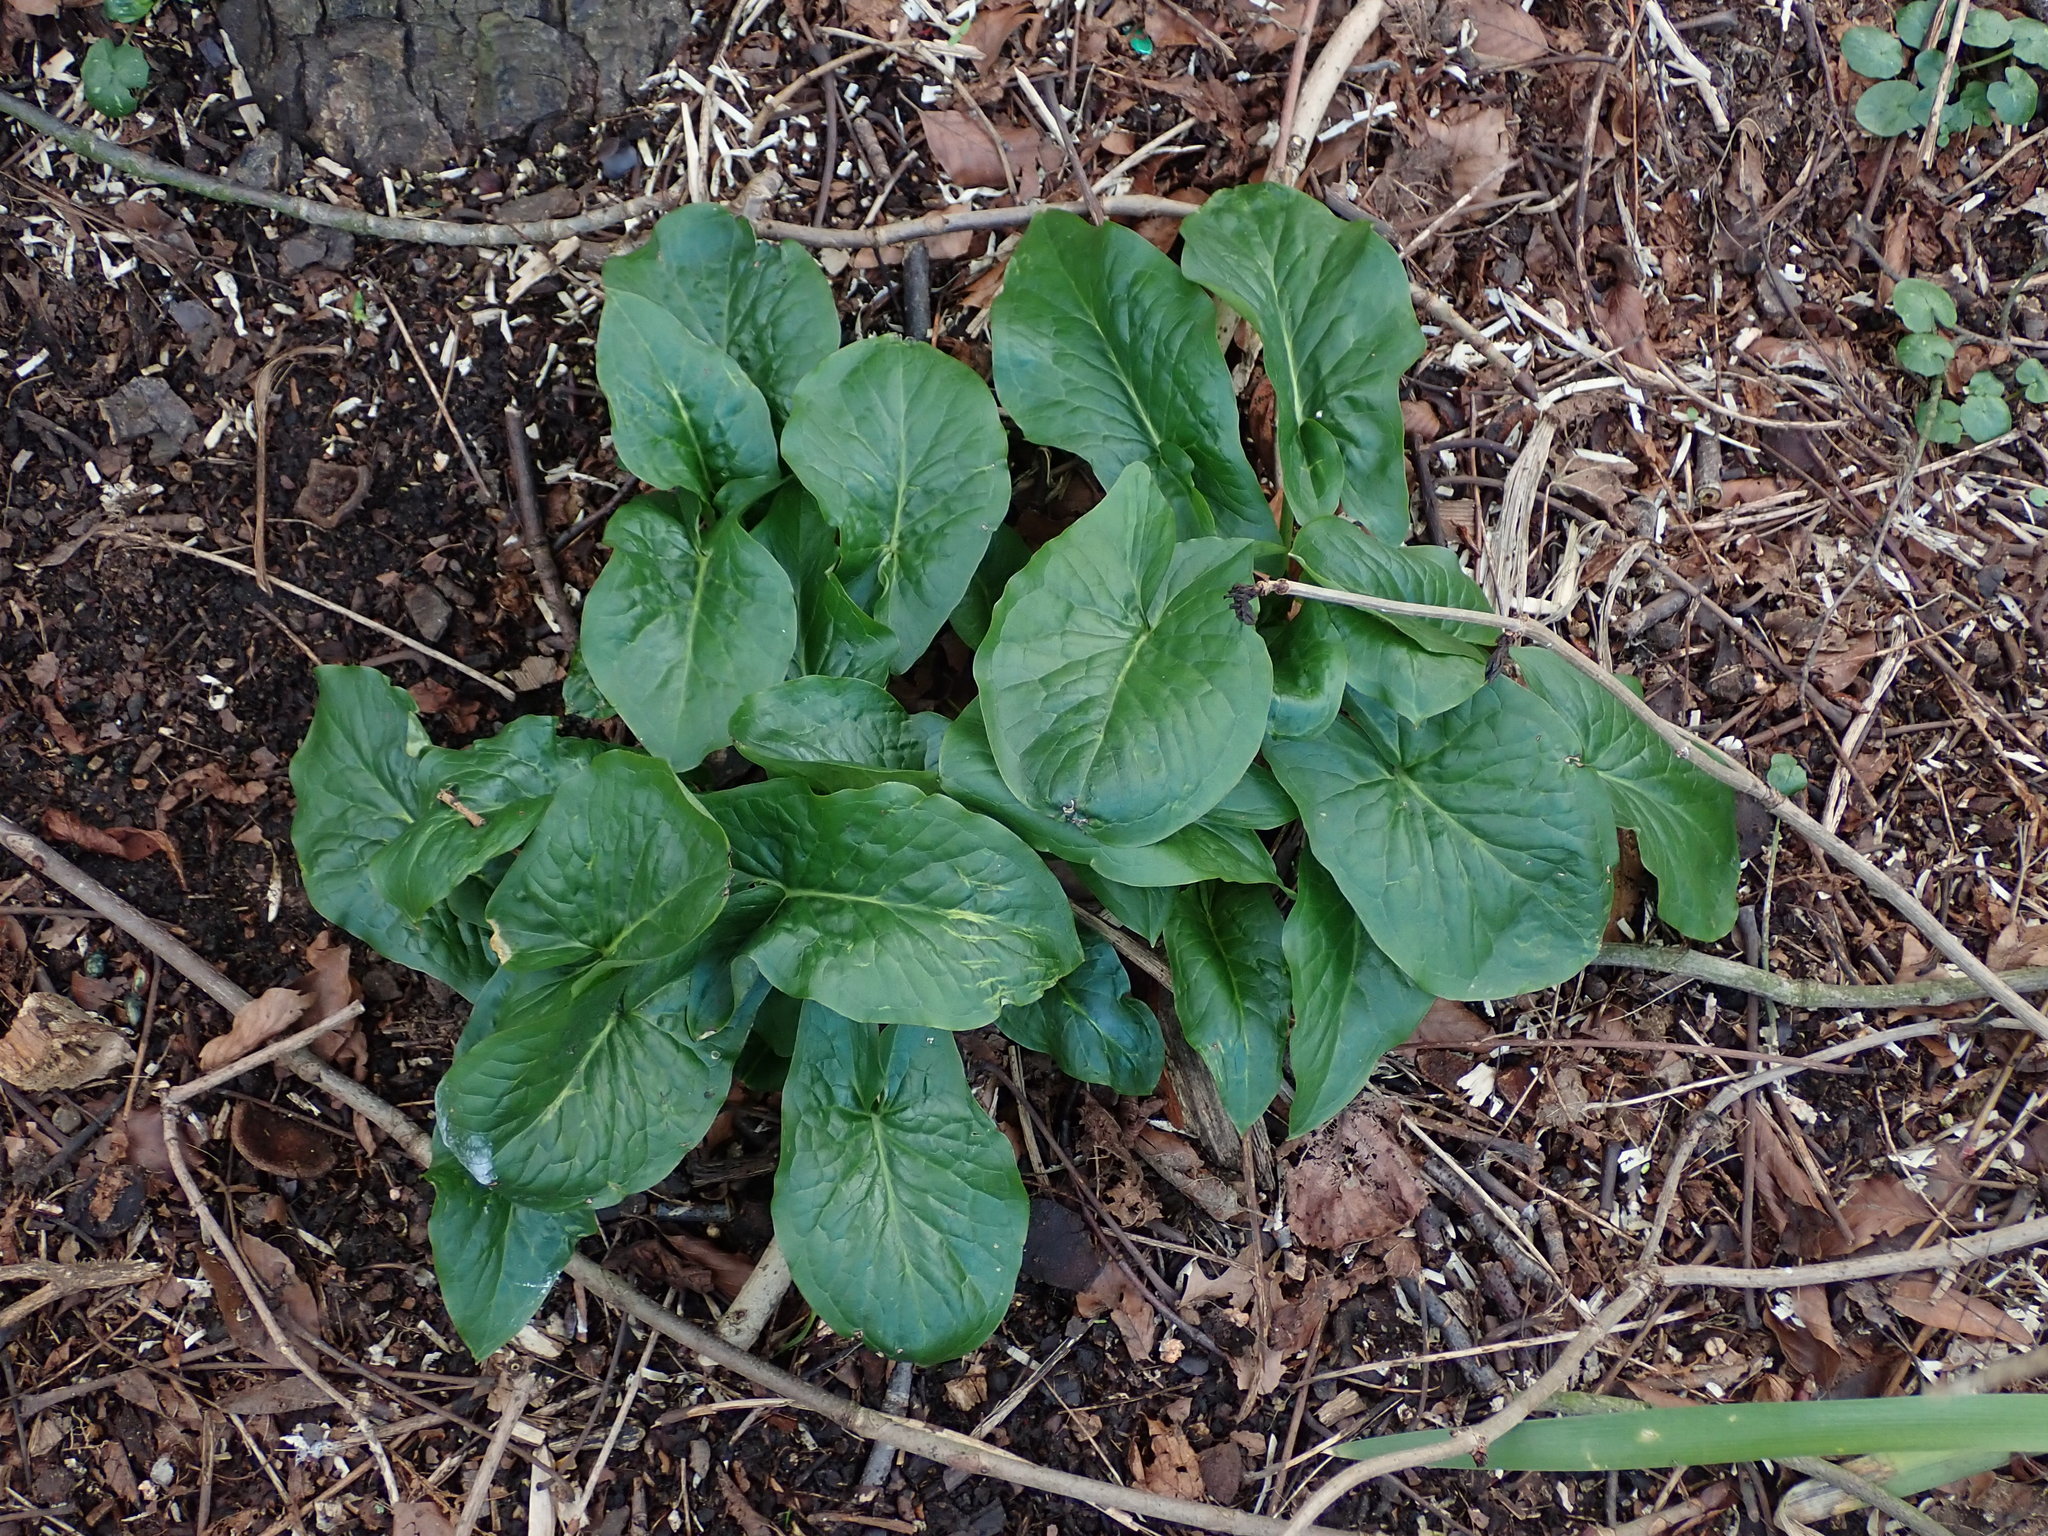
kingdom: Plantae
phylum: Tracheophyta
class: Liliopsida
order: Alismatales
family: Araceae
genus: Arum
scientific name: Arum maculatum
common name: Lords-and-ladies
